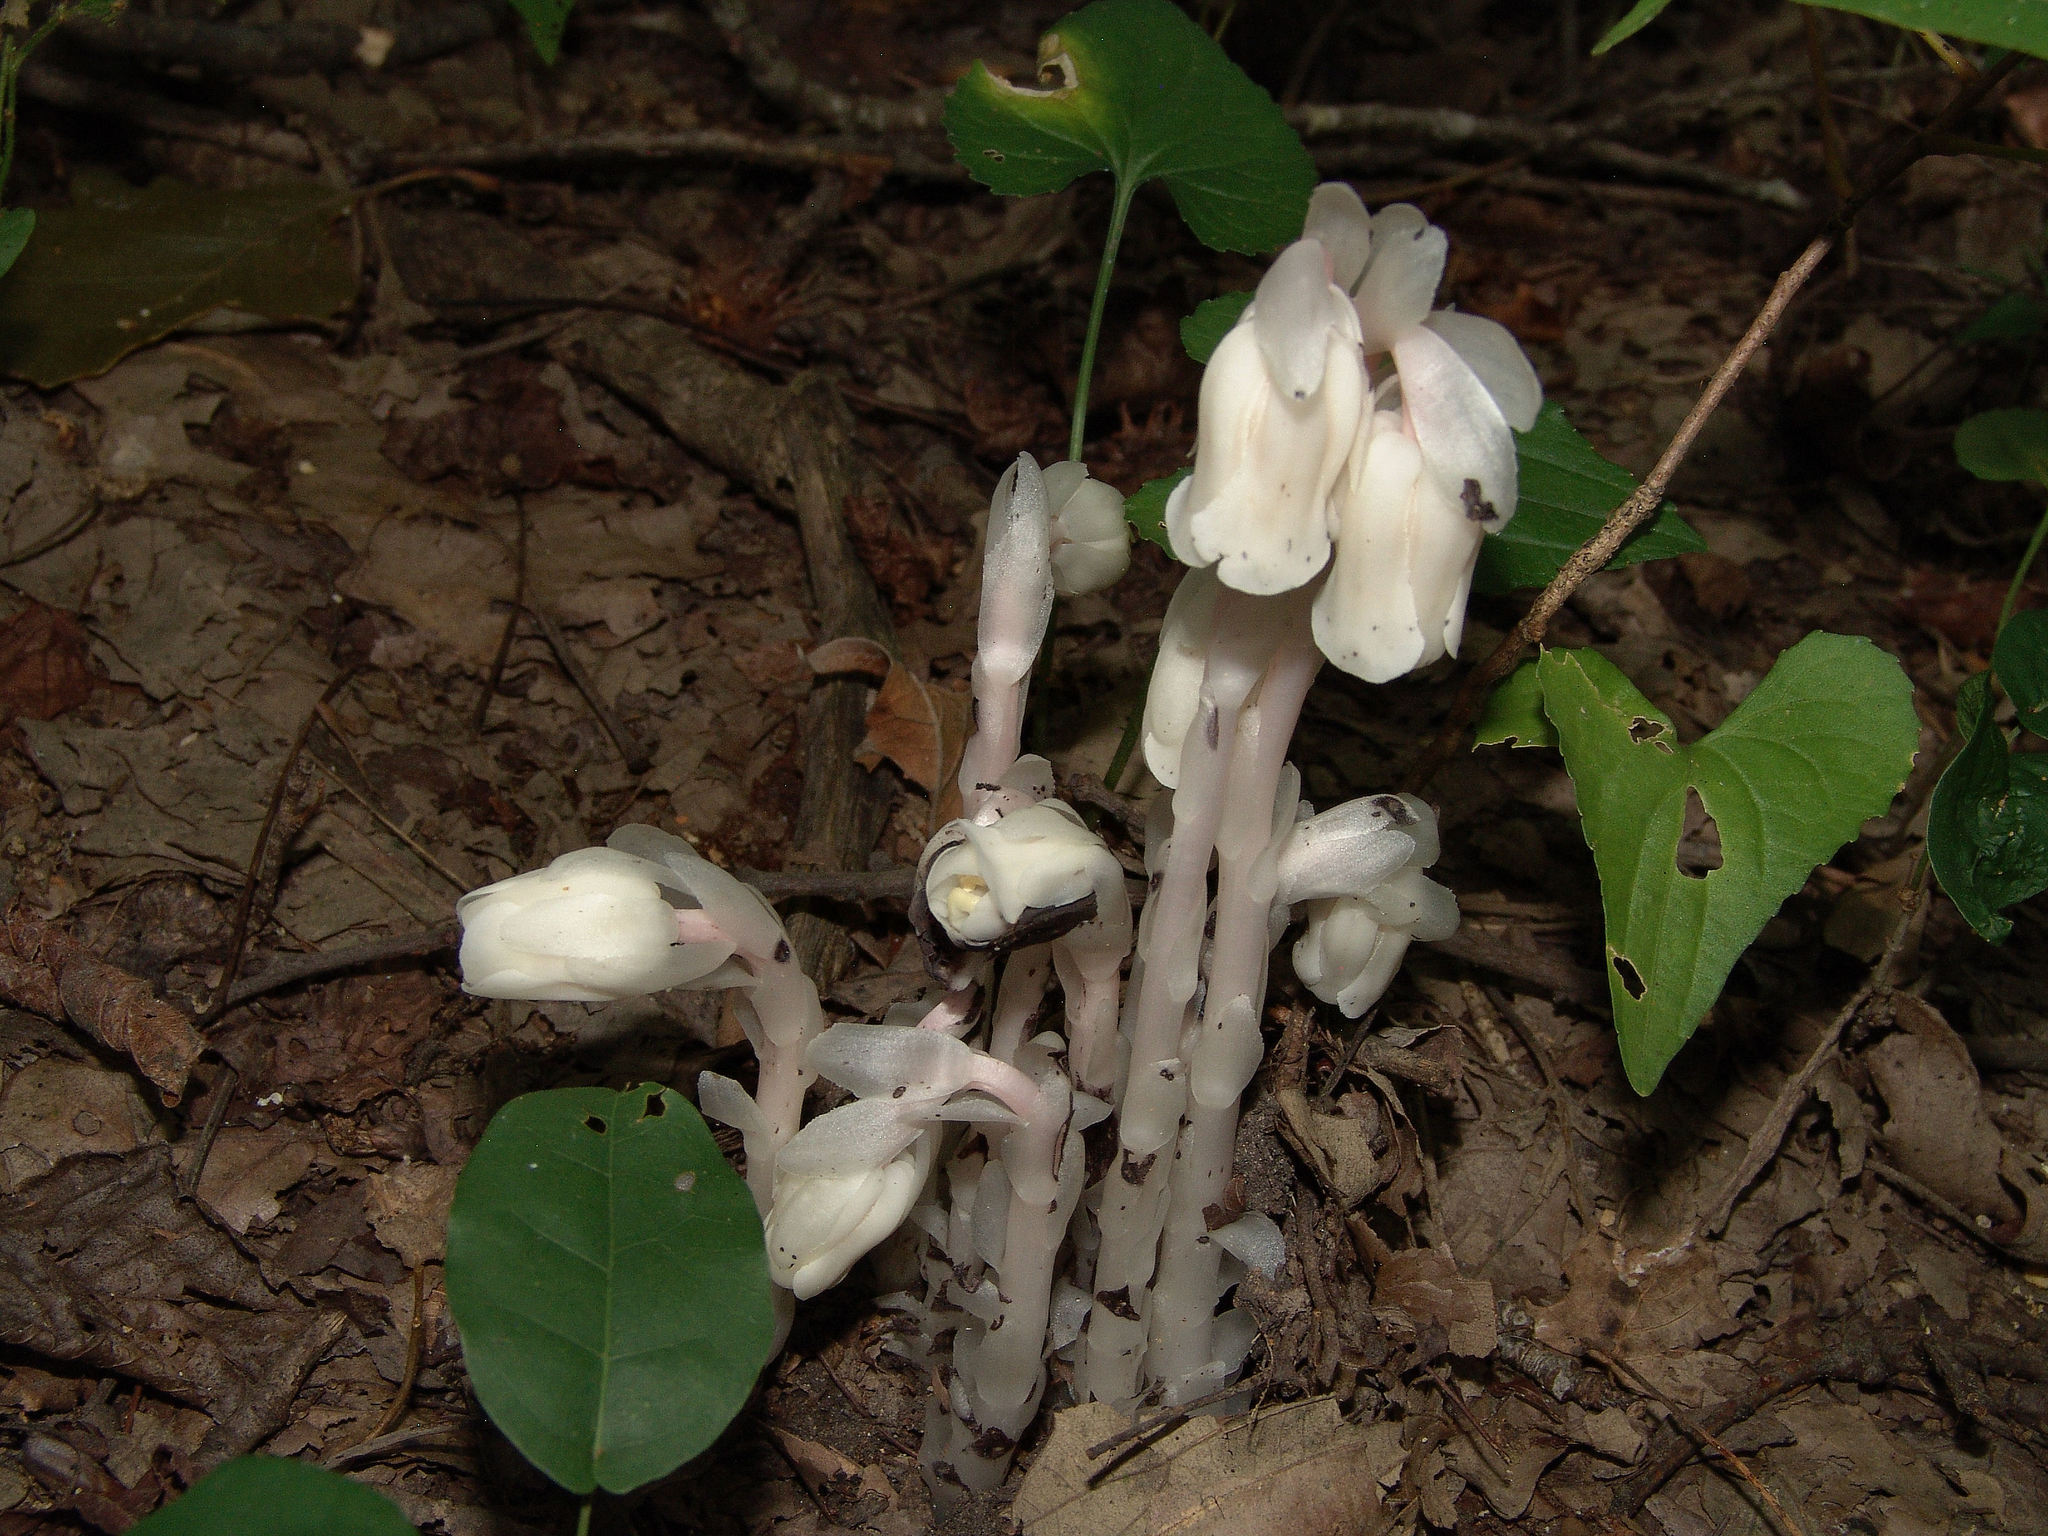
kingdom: Plantae
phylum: Tracheophyta
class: Magnoliopsida
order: Ericales
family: Ericaceae
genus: Monotropa
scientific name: Monotropa uniflora
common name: Convulsion root
